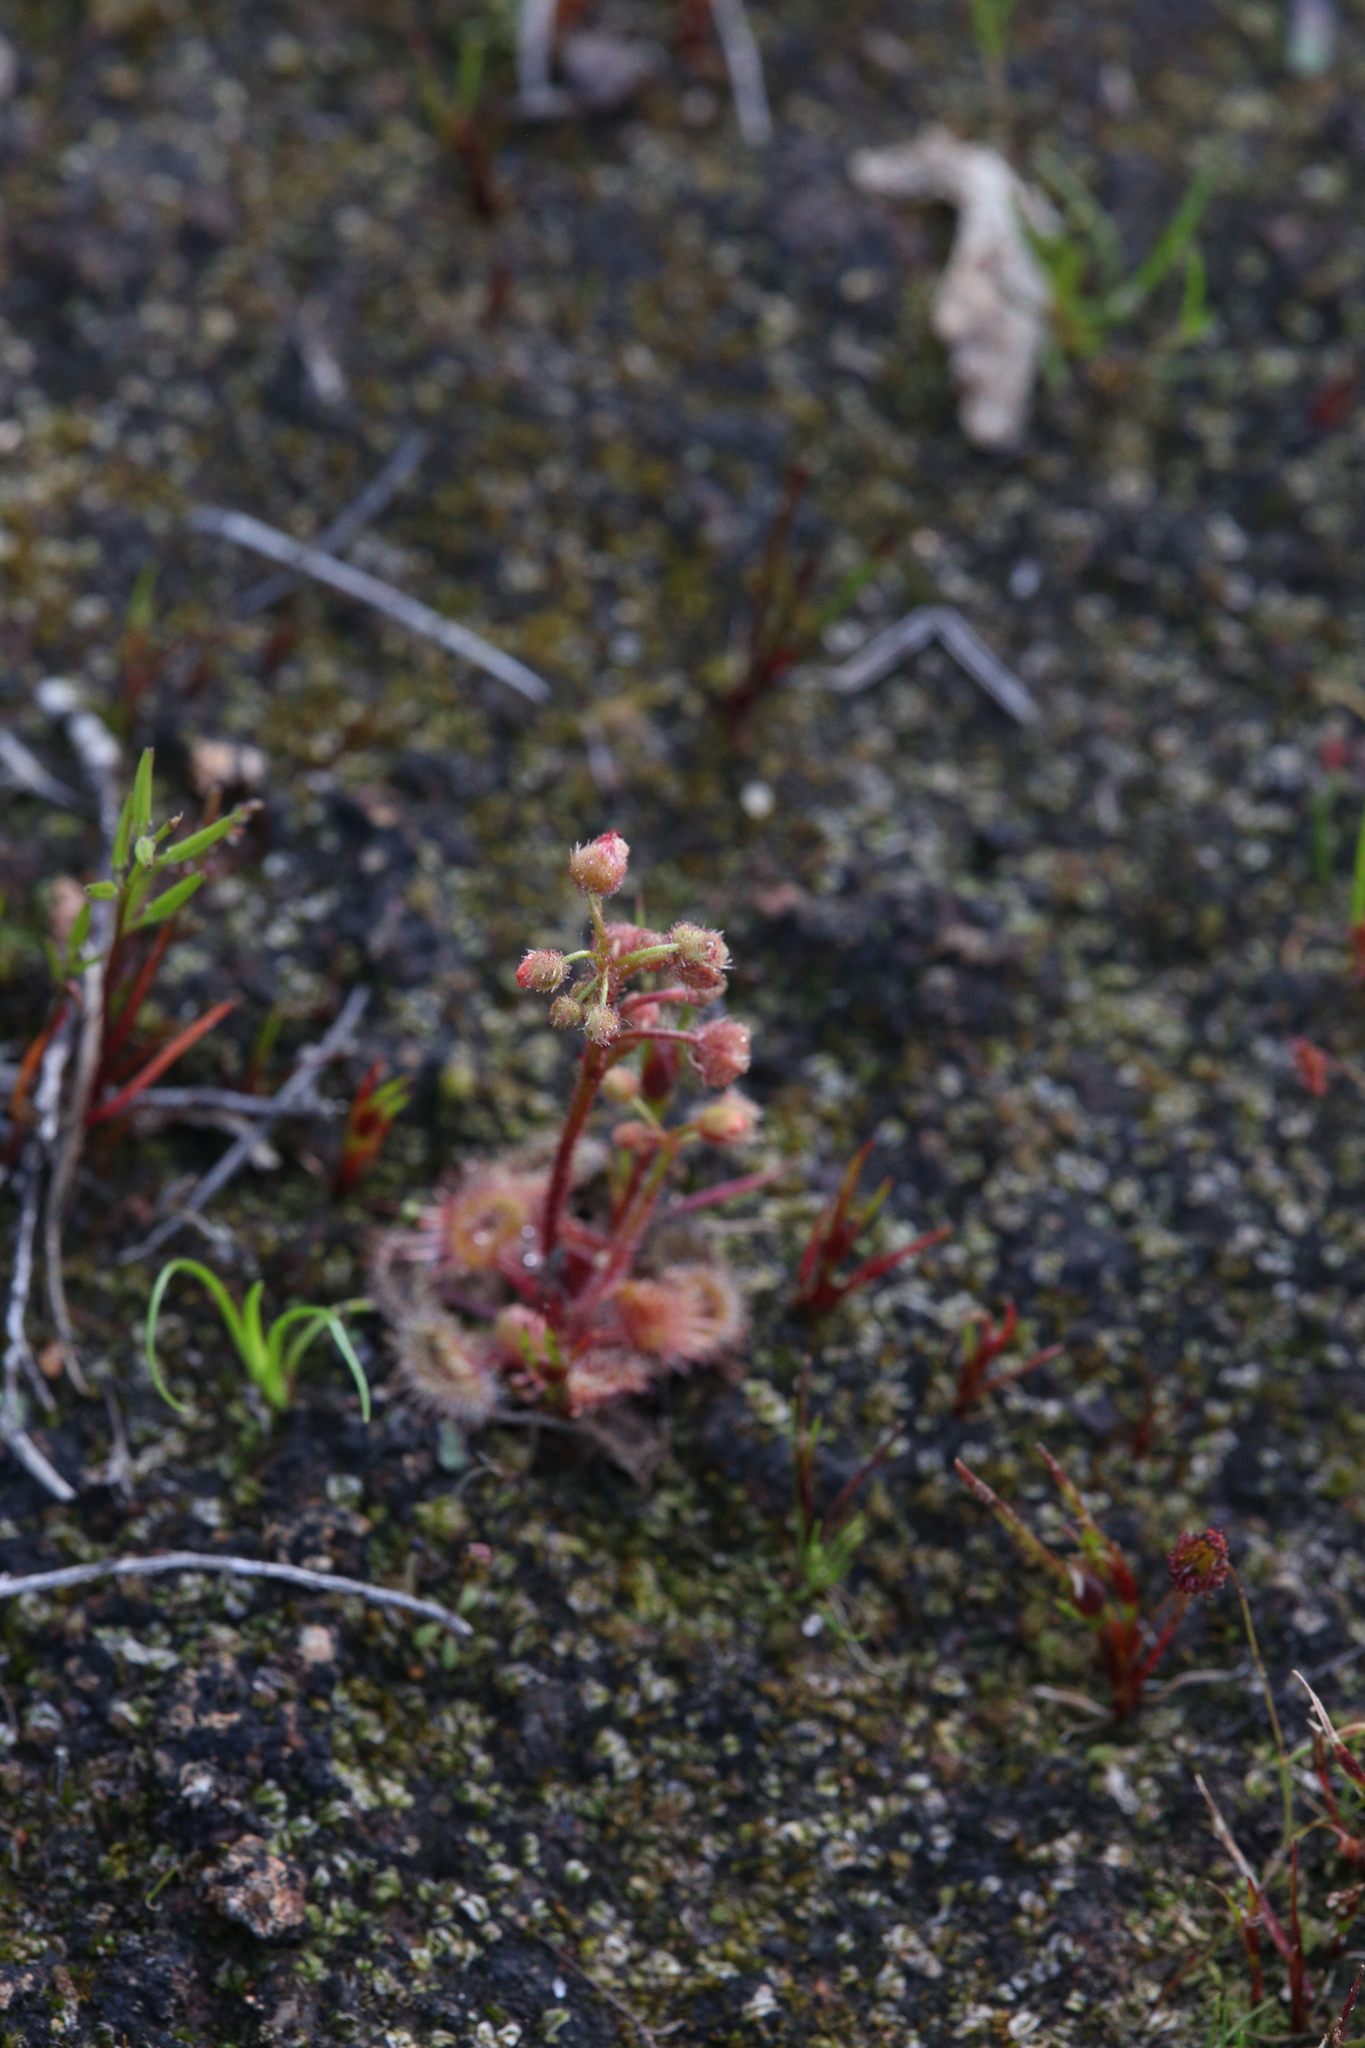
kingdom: Plantae
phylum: Tracheophyta
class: Magnoliopsida
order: Caryophyllales
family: Droseraceae
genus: Drosera
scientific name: Drosera glanduligera
